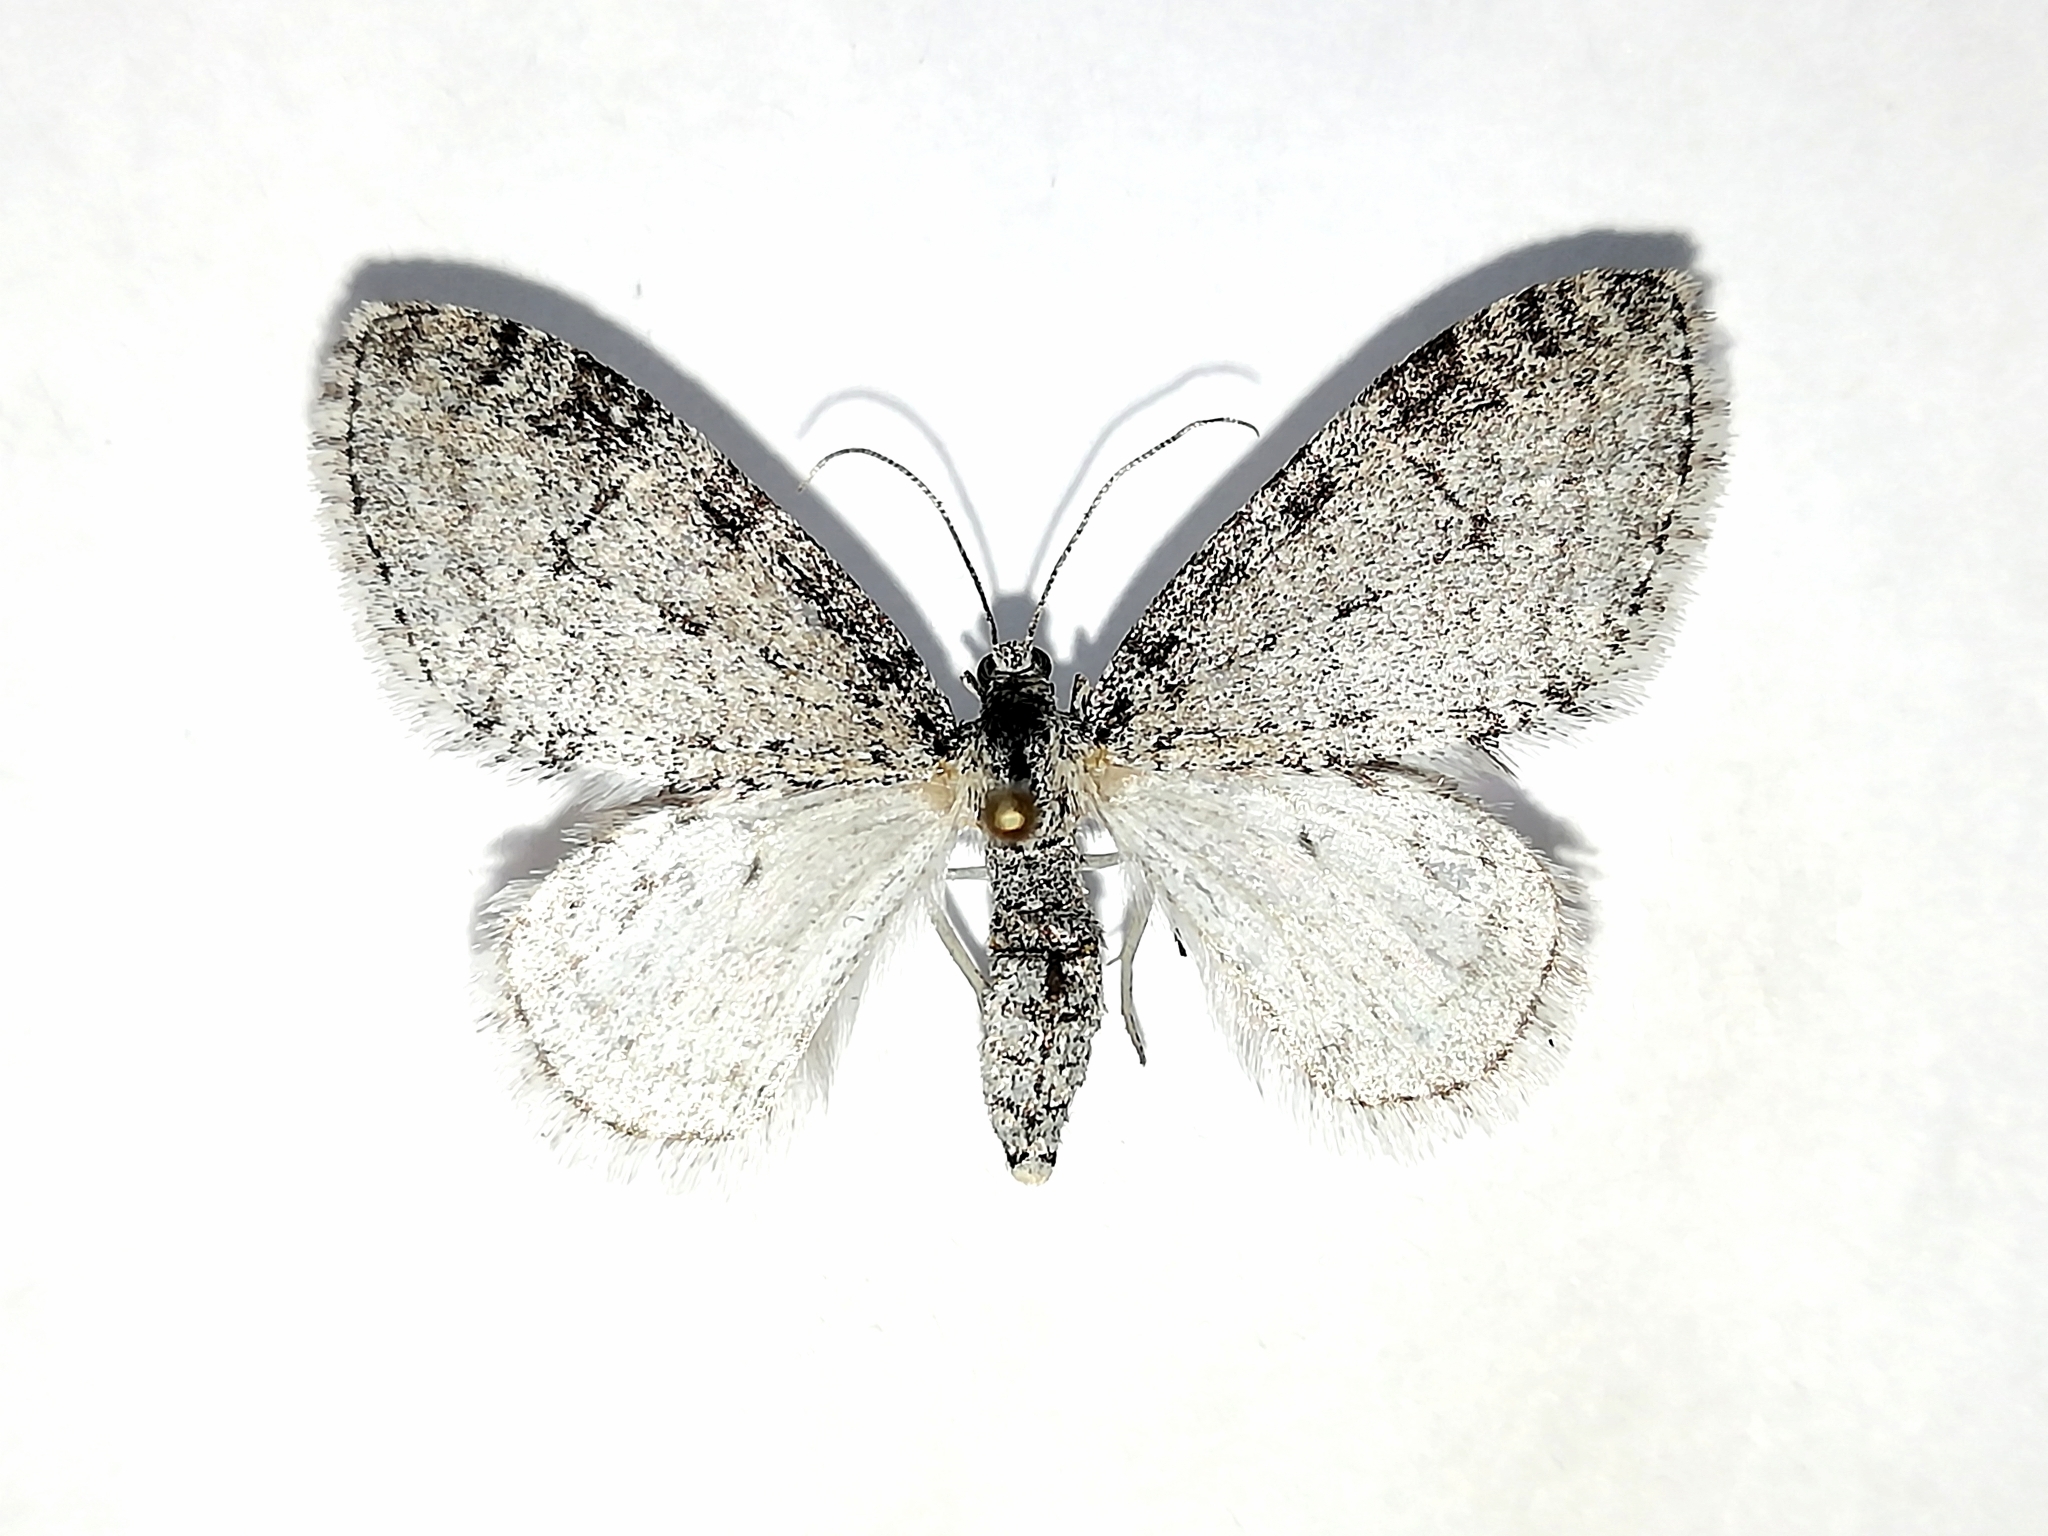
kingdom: Animalia
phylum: Arthropoda
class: Insecta
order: Lepidoptera
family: Geometridae
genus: Trichopteryx
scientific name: Trichopteryx carpinata
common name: Early tooth-striped
